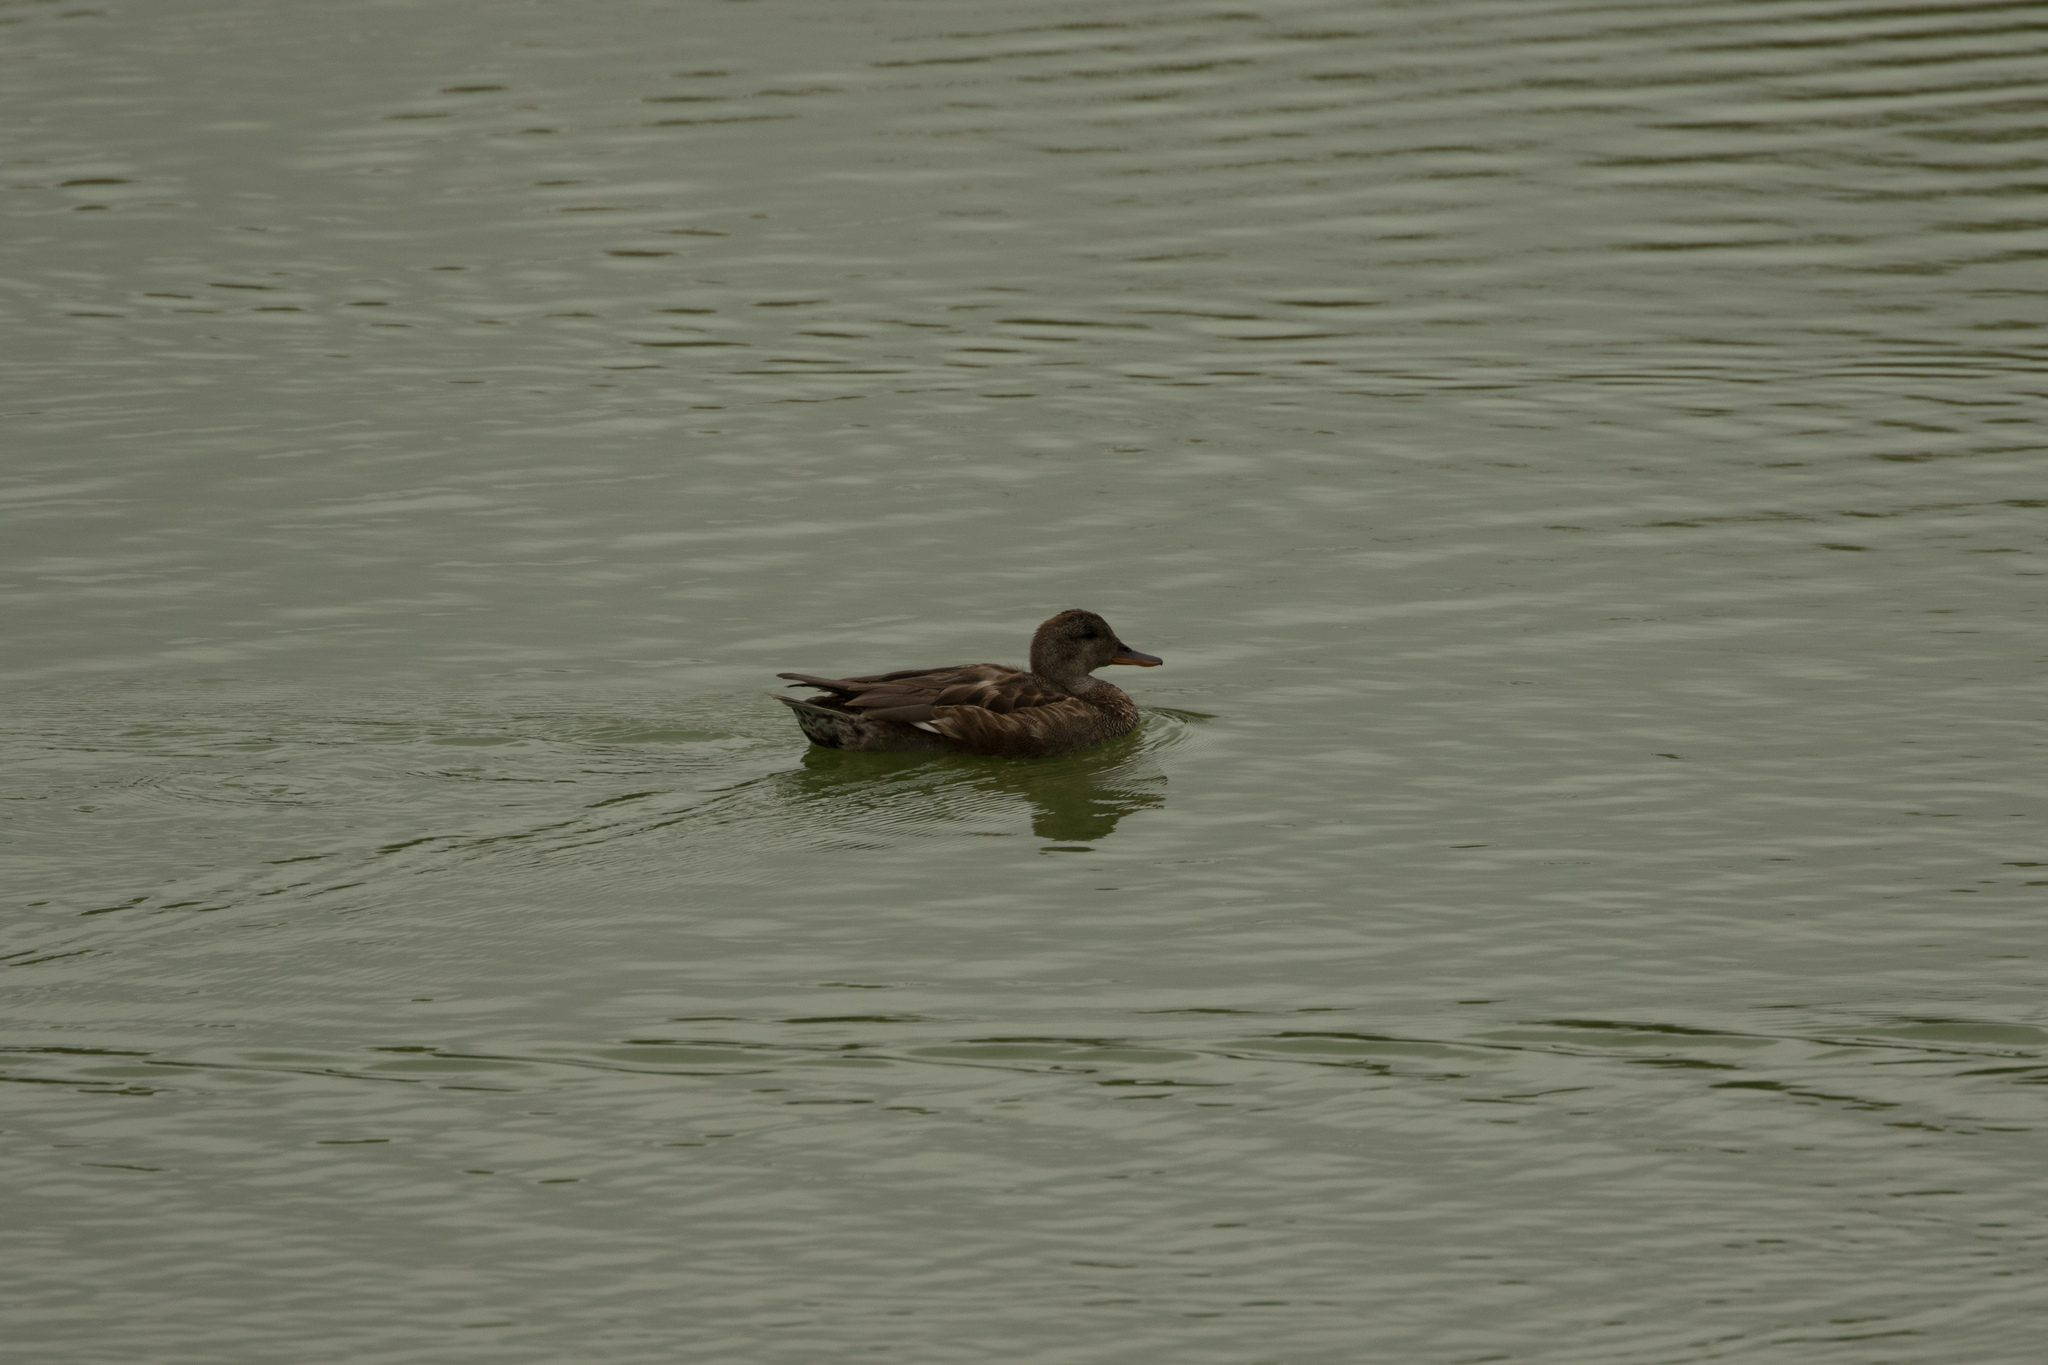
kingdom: Animalia
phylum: Chordata
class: Aves
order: Anseriformes
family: Anatidae
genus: Mareca
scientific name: Mareca strepera
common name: Gadwall
